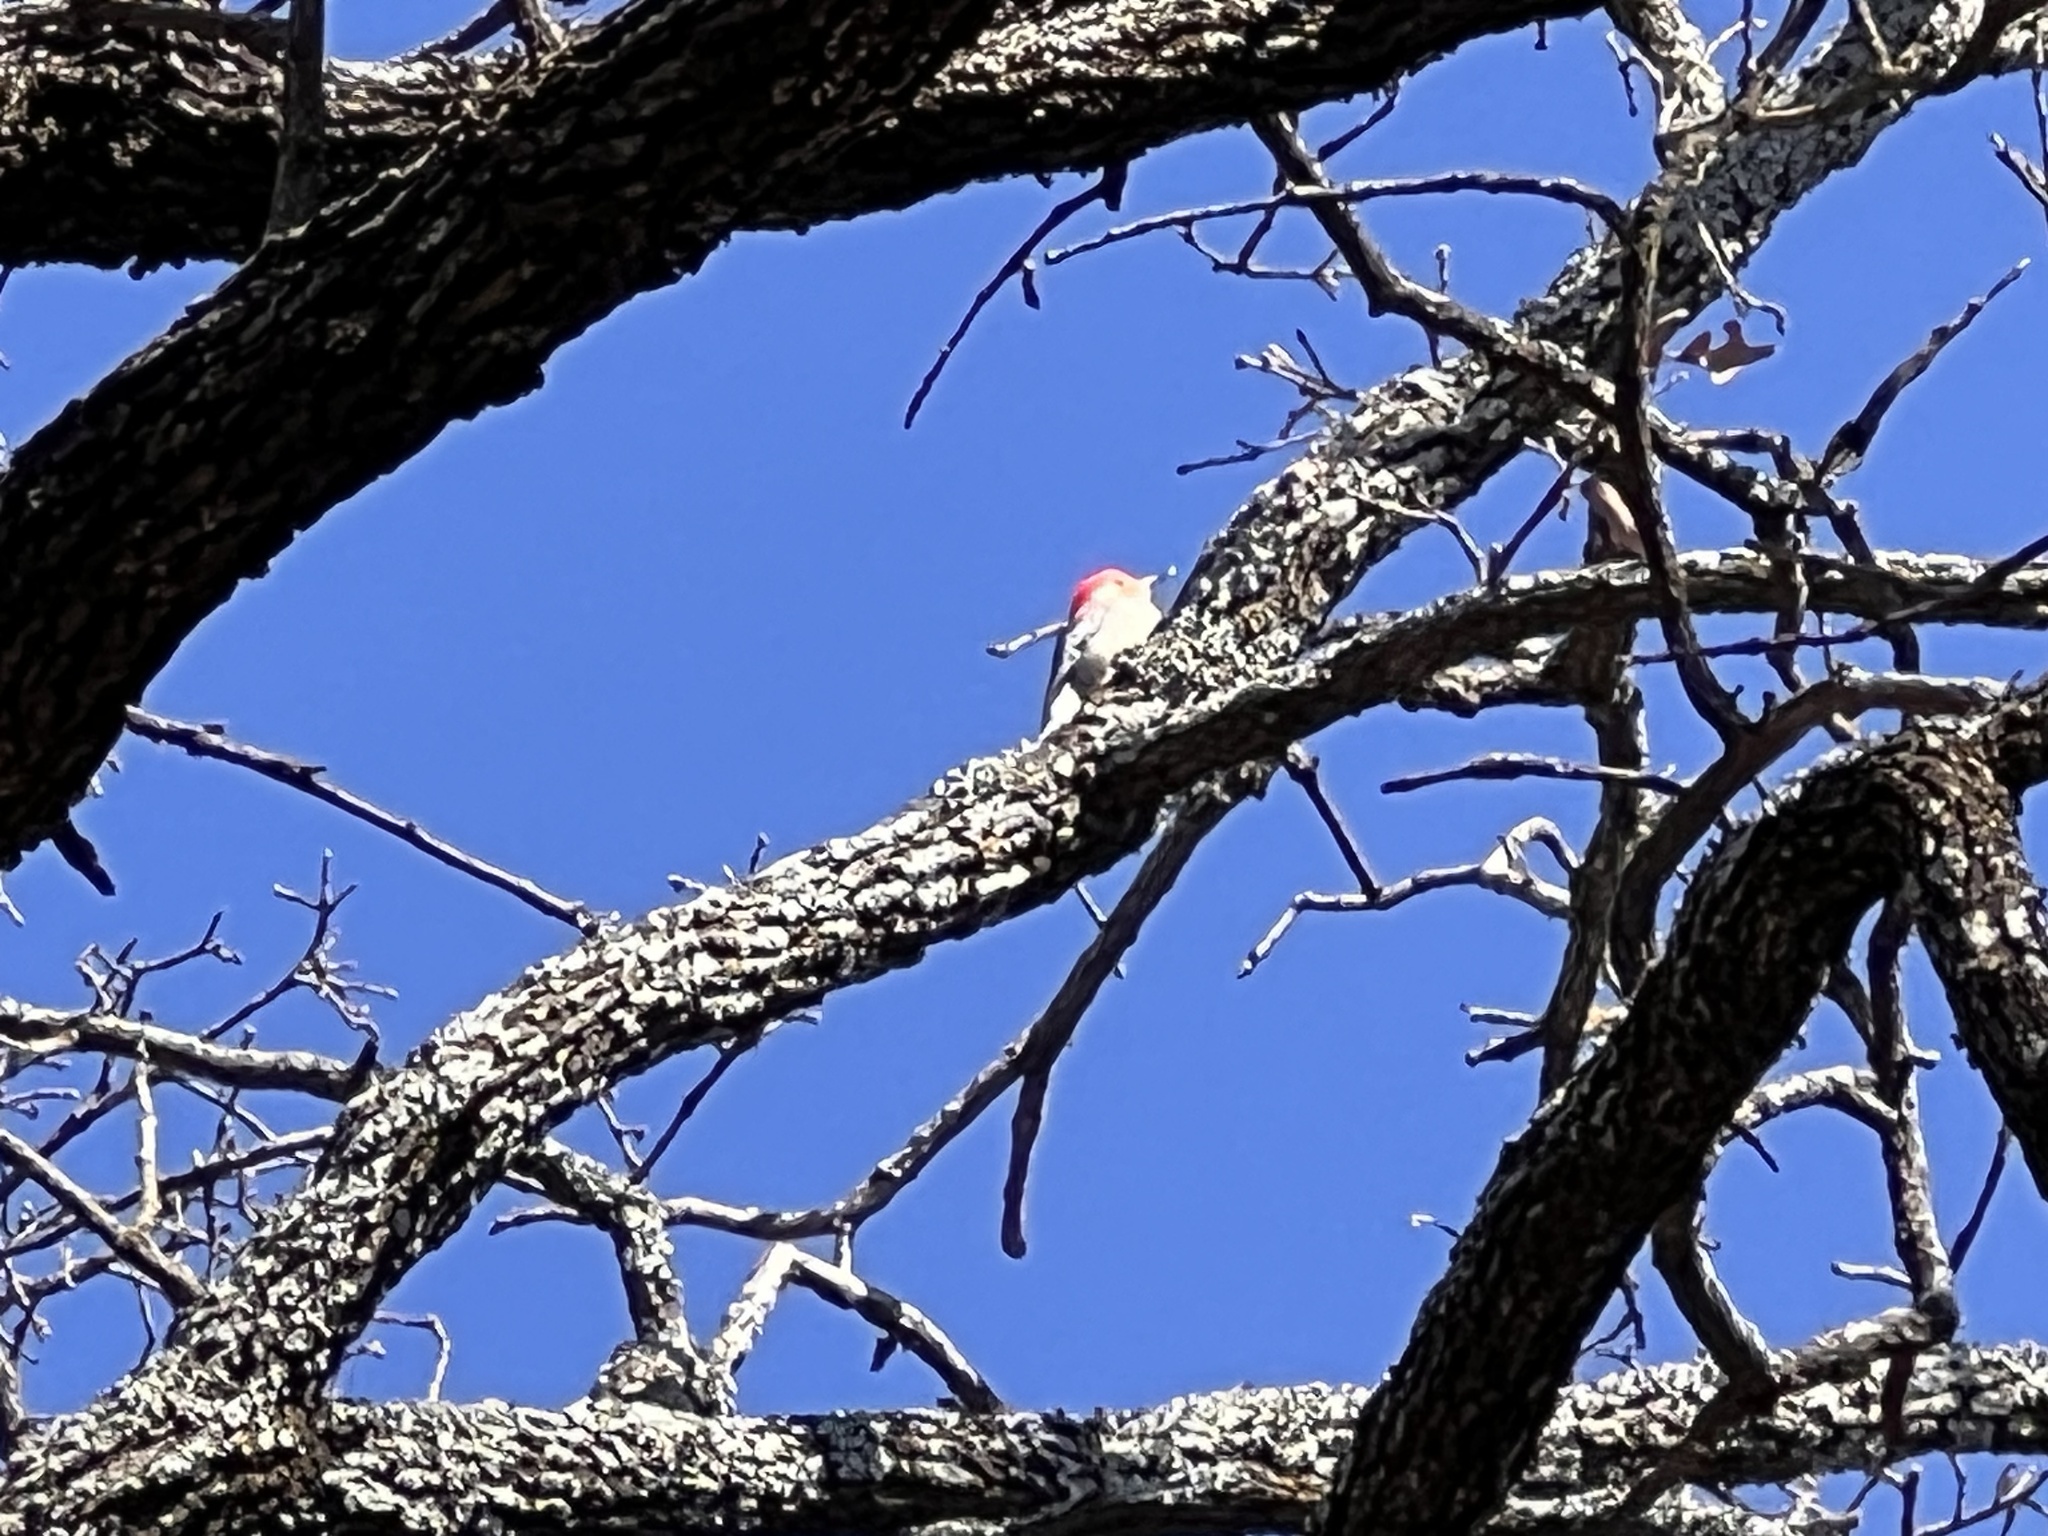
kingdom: Animalia
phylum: Chordata
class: Aves
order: Piciformes
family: Picidae
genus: Melanerpes
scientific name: Melanerpes carolinus
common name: Red-bellied woodpecker
